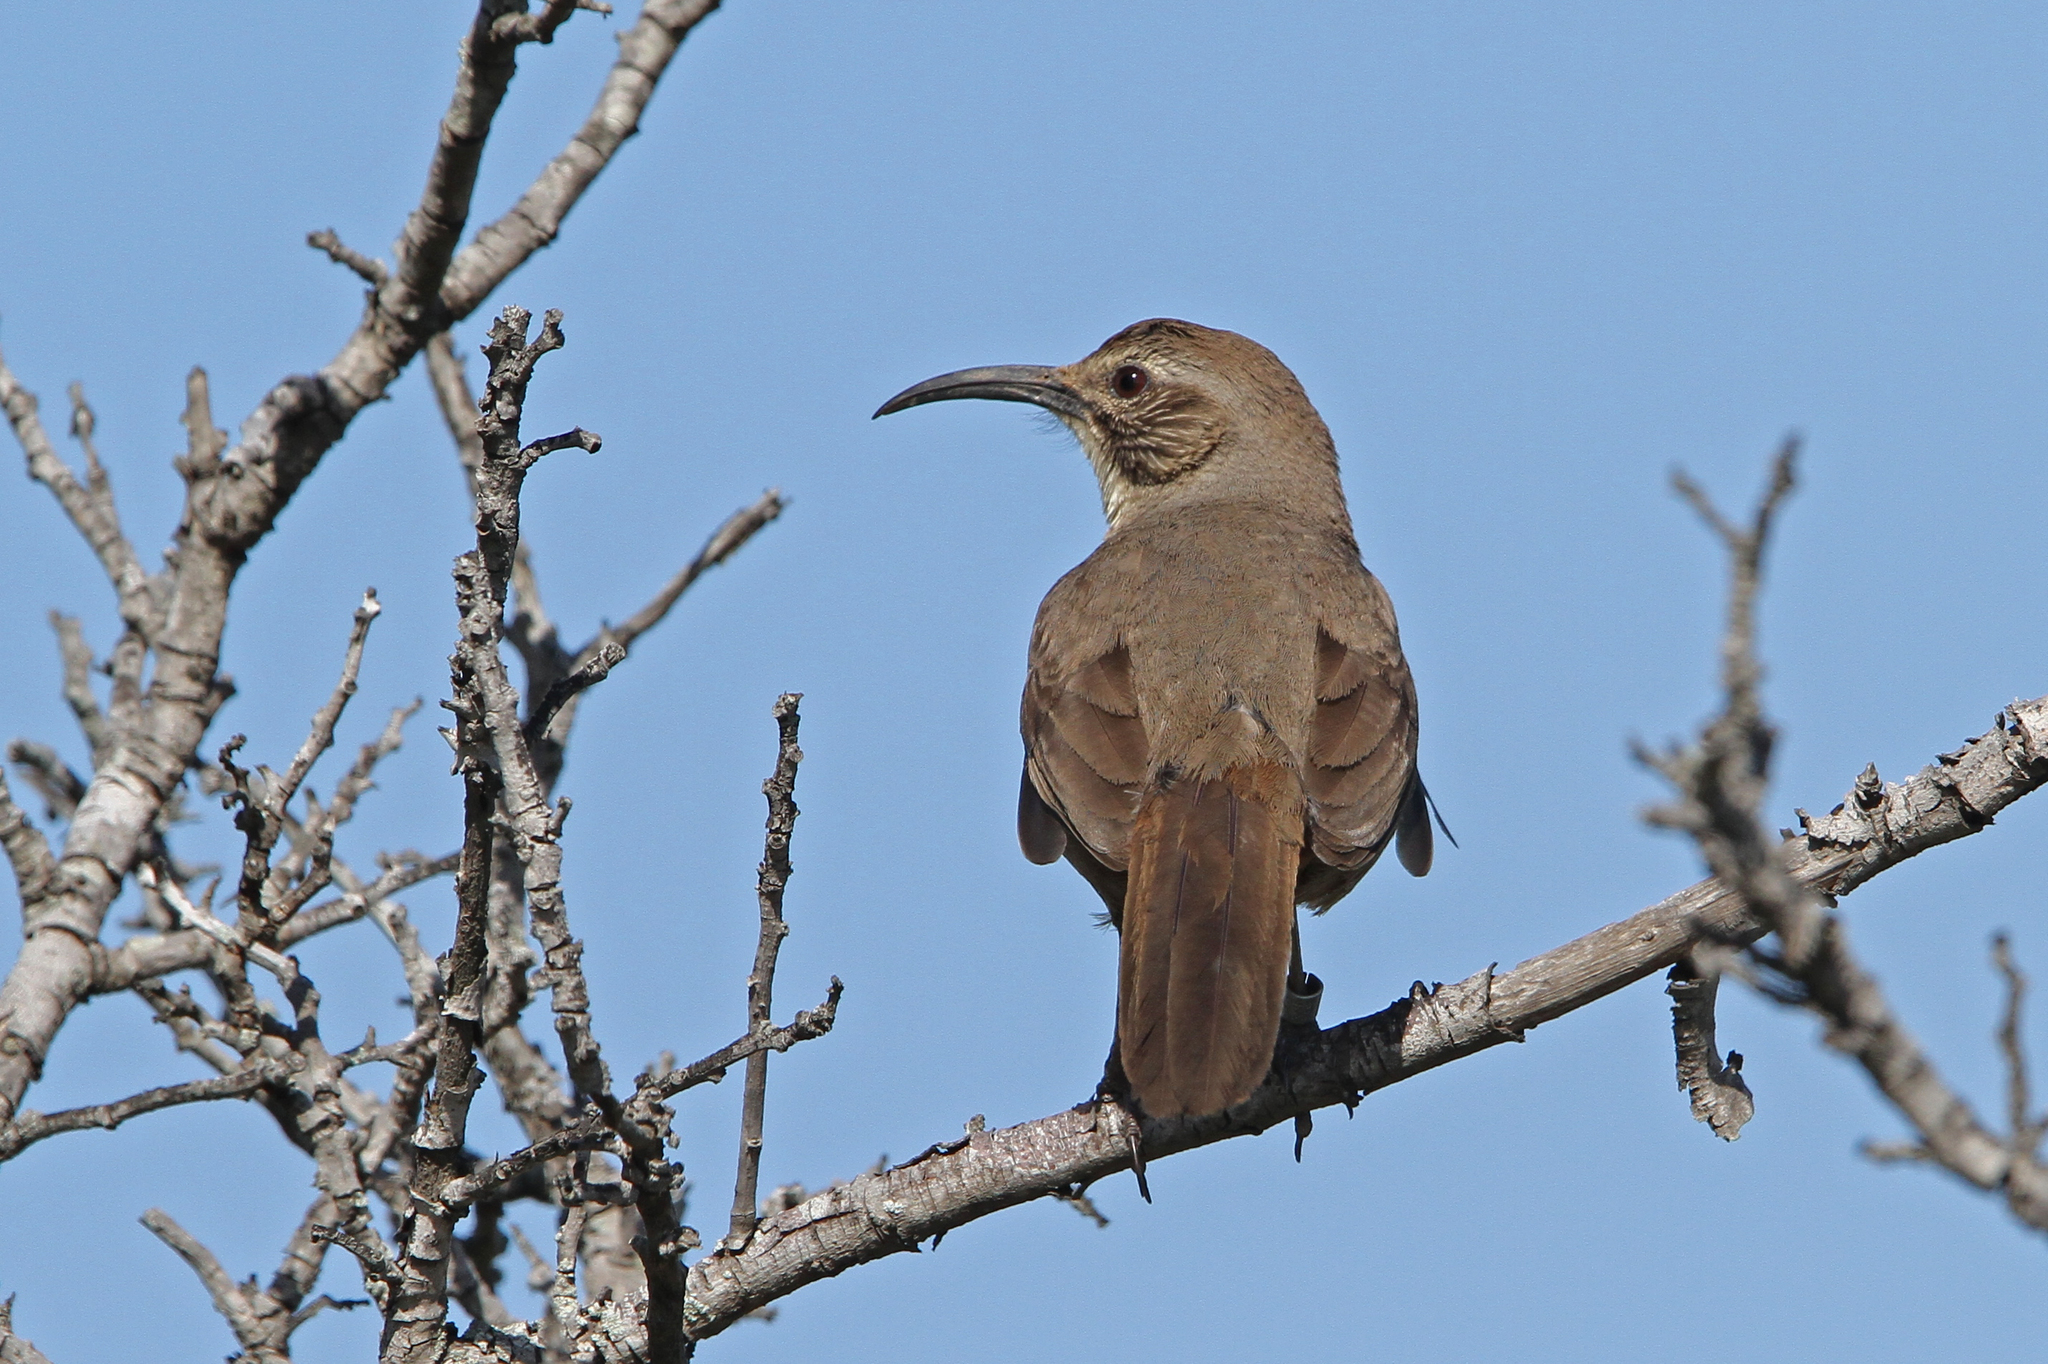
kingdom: Animalia
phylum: Chordata
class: Aves
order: Passeriformes
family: Mimidae
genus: Toxostoma
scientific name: Toxostoma redivivum
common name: California thrasher
